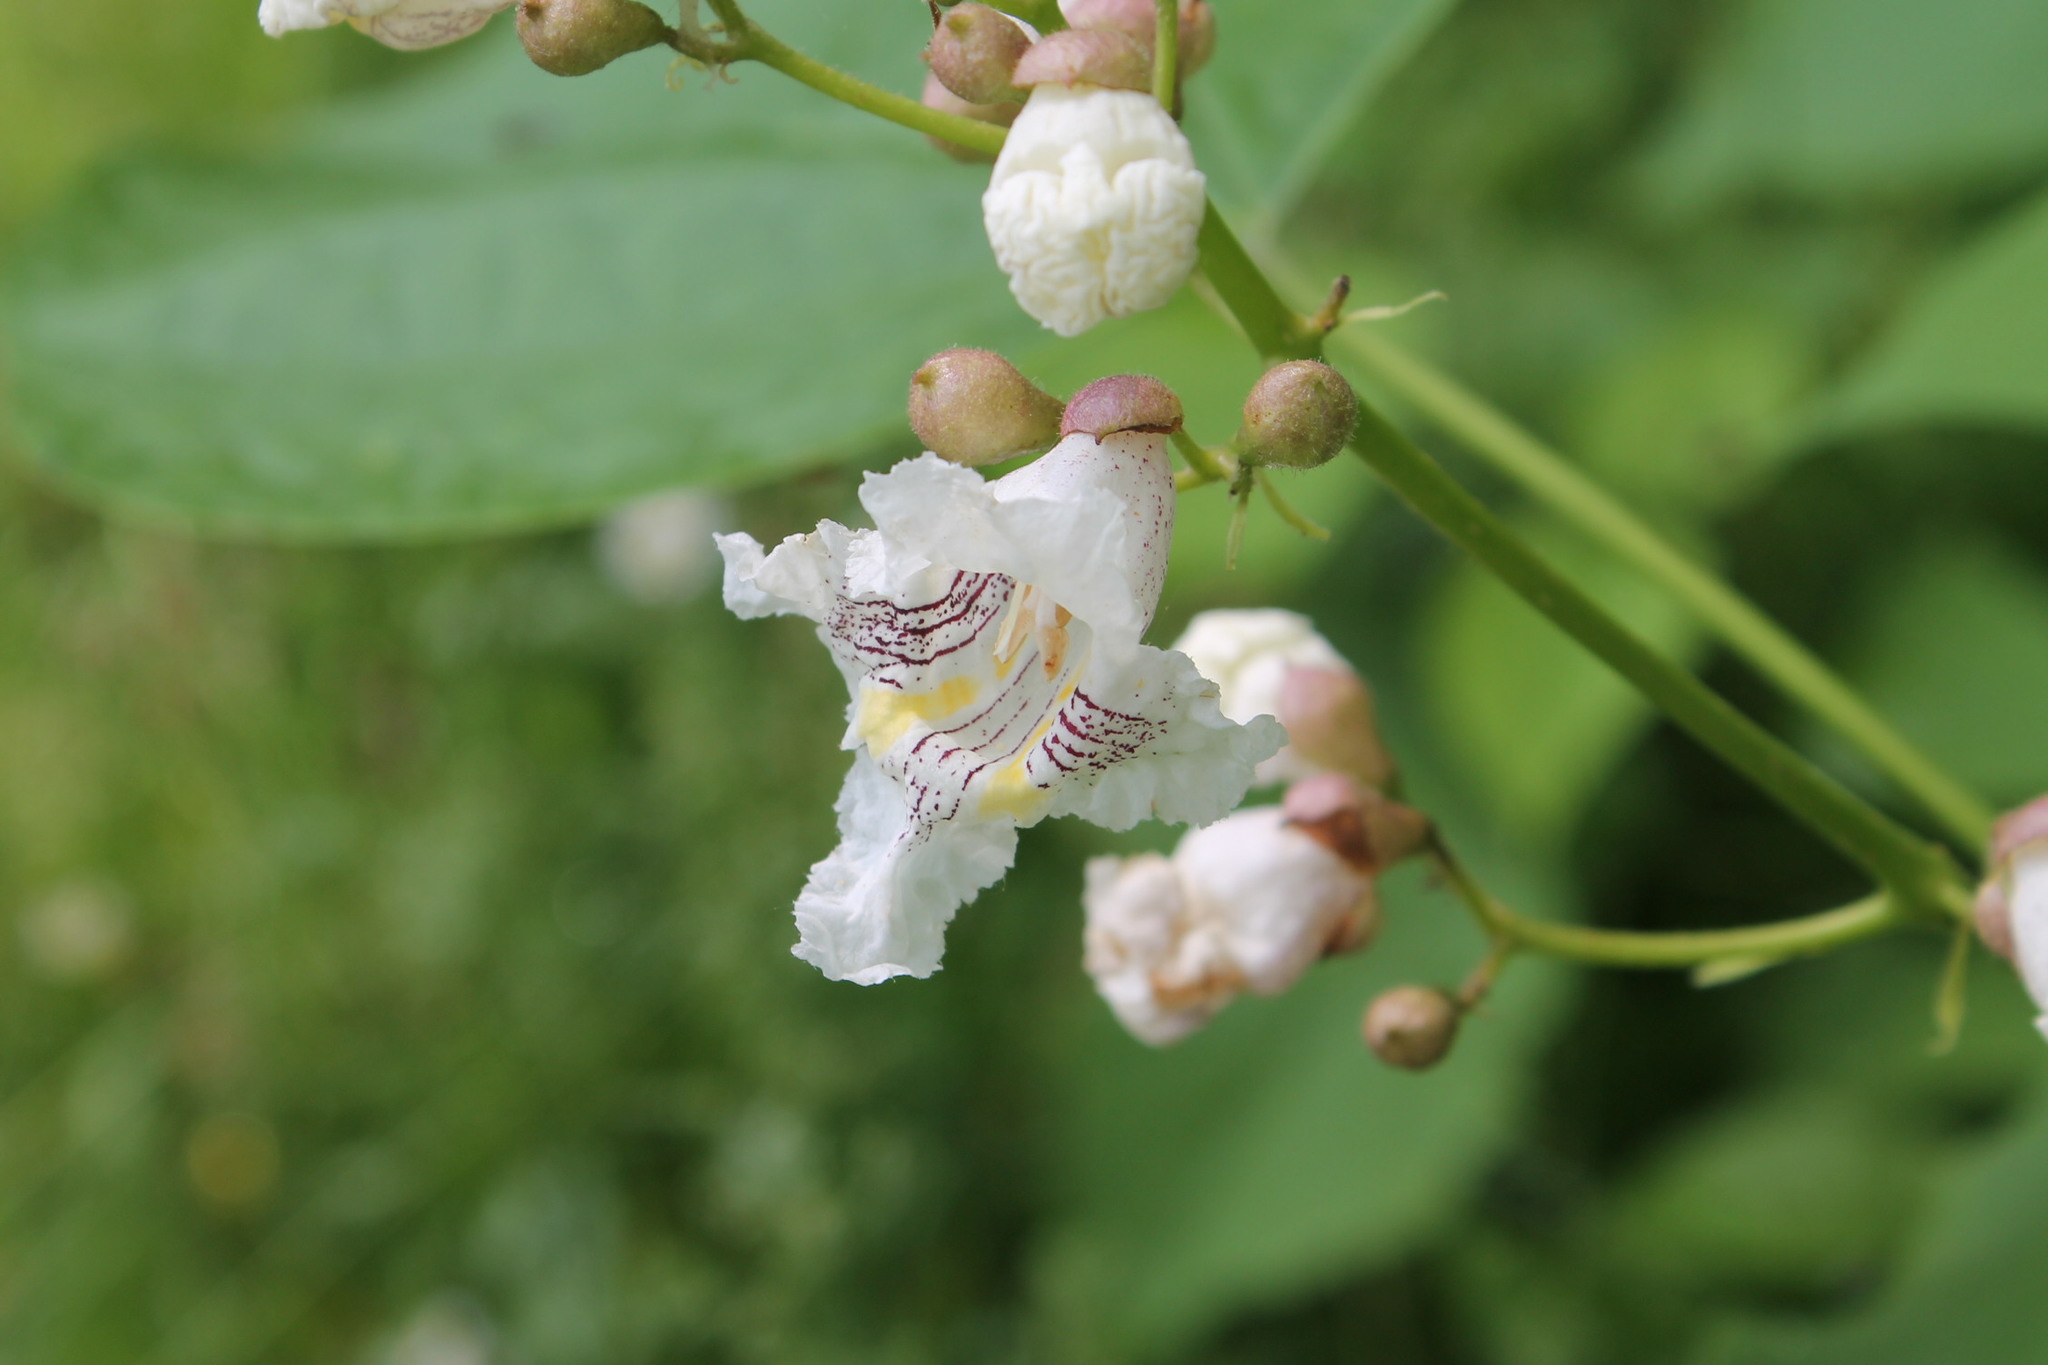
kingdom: Plantae
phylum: Tracheophyta
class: Magnoliopsida
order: Lamiales
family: Bignoniaceae
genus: Catalpa
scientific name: Catalpa speciosa
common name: Northern catalpa
